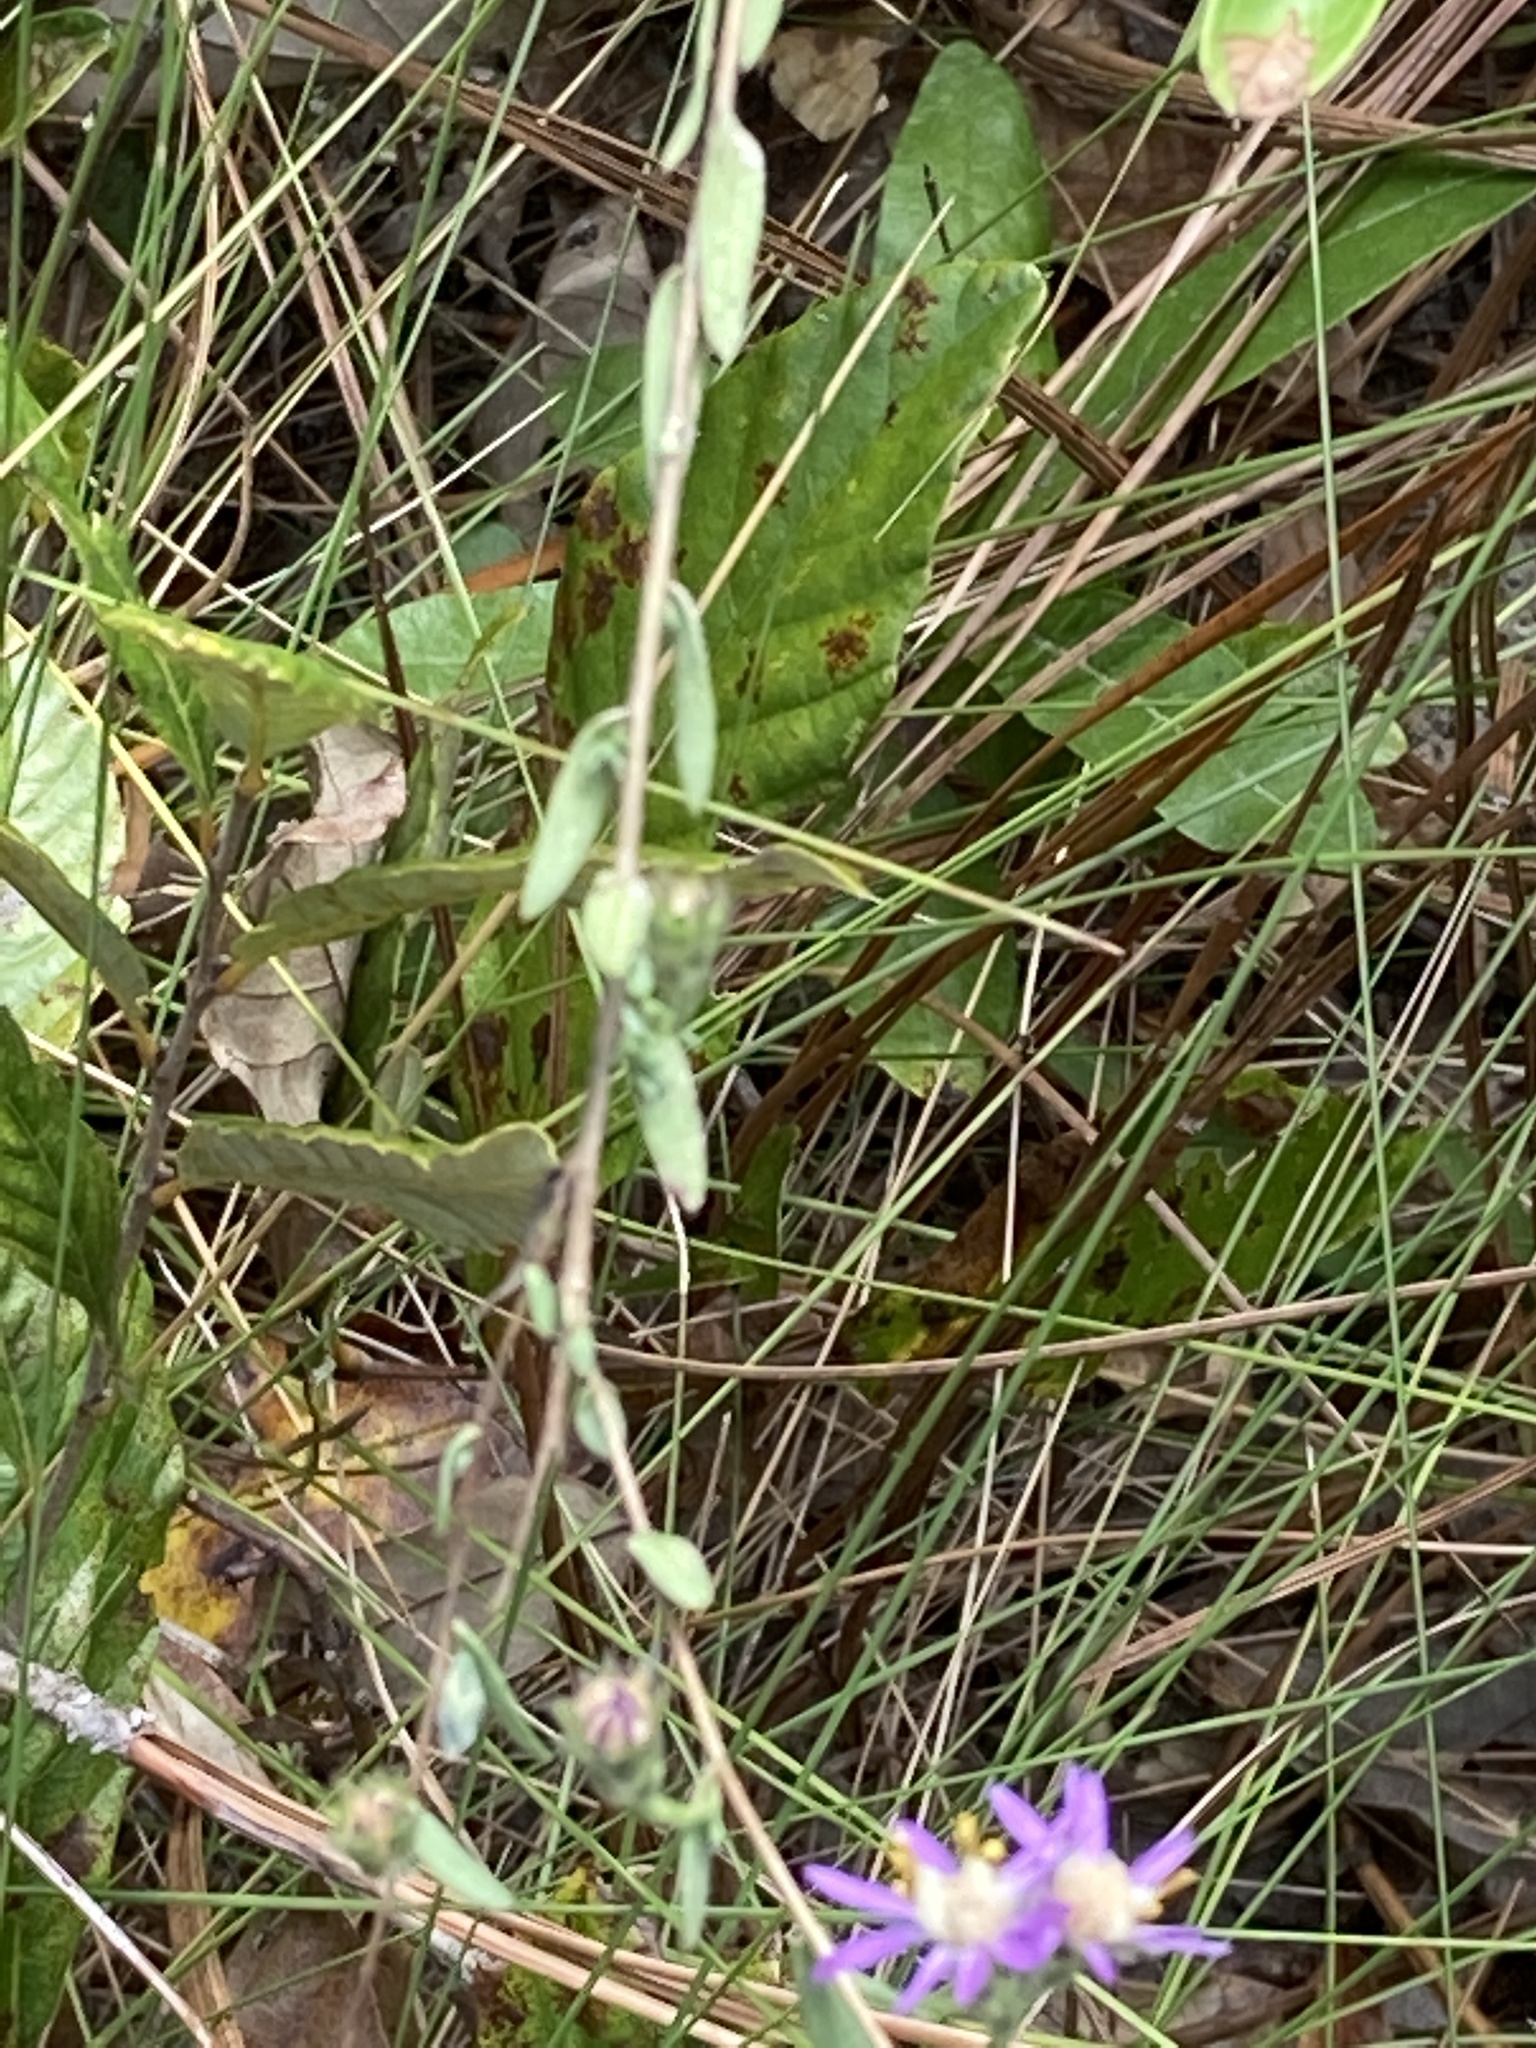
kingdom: Plantae
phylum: Tracheophyta
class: Magnoliopsida
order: Asterales
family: Asteraceae
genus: Symphyotrichum
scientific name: Symphyotrichum concolor
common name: Eastern silver aster
